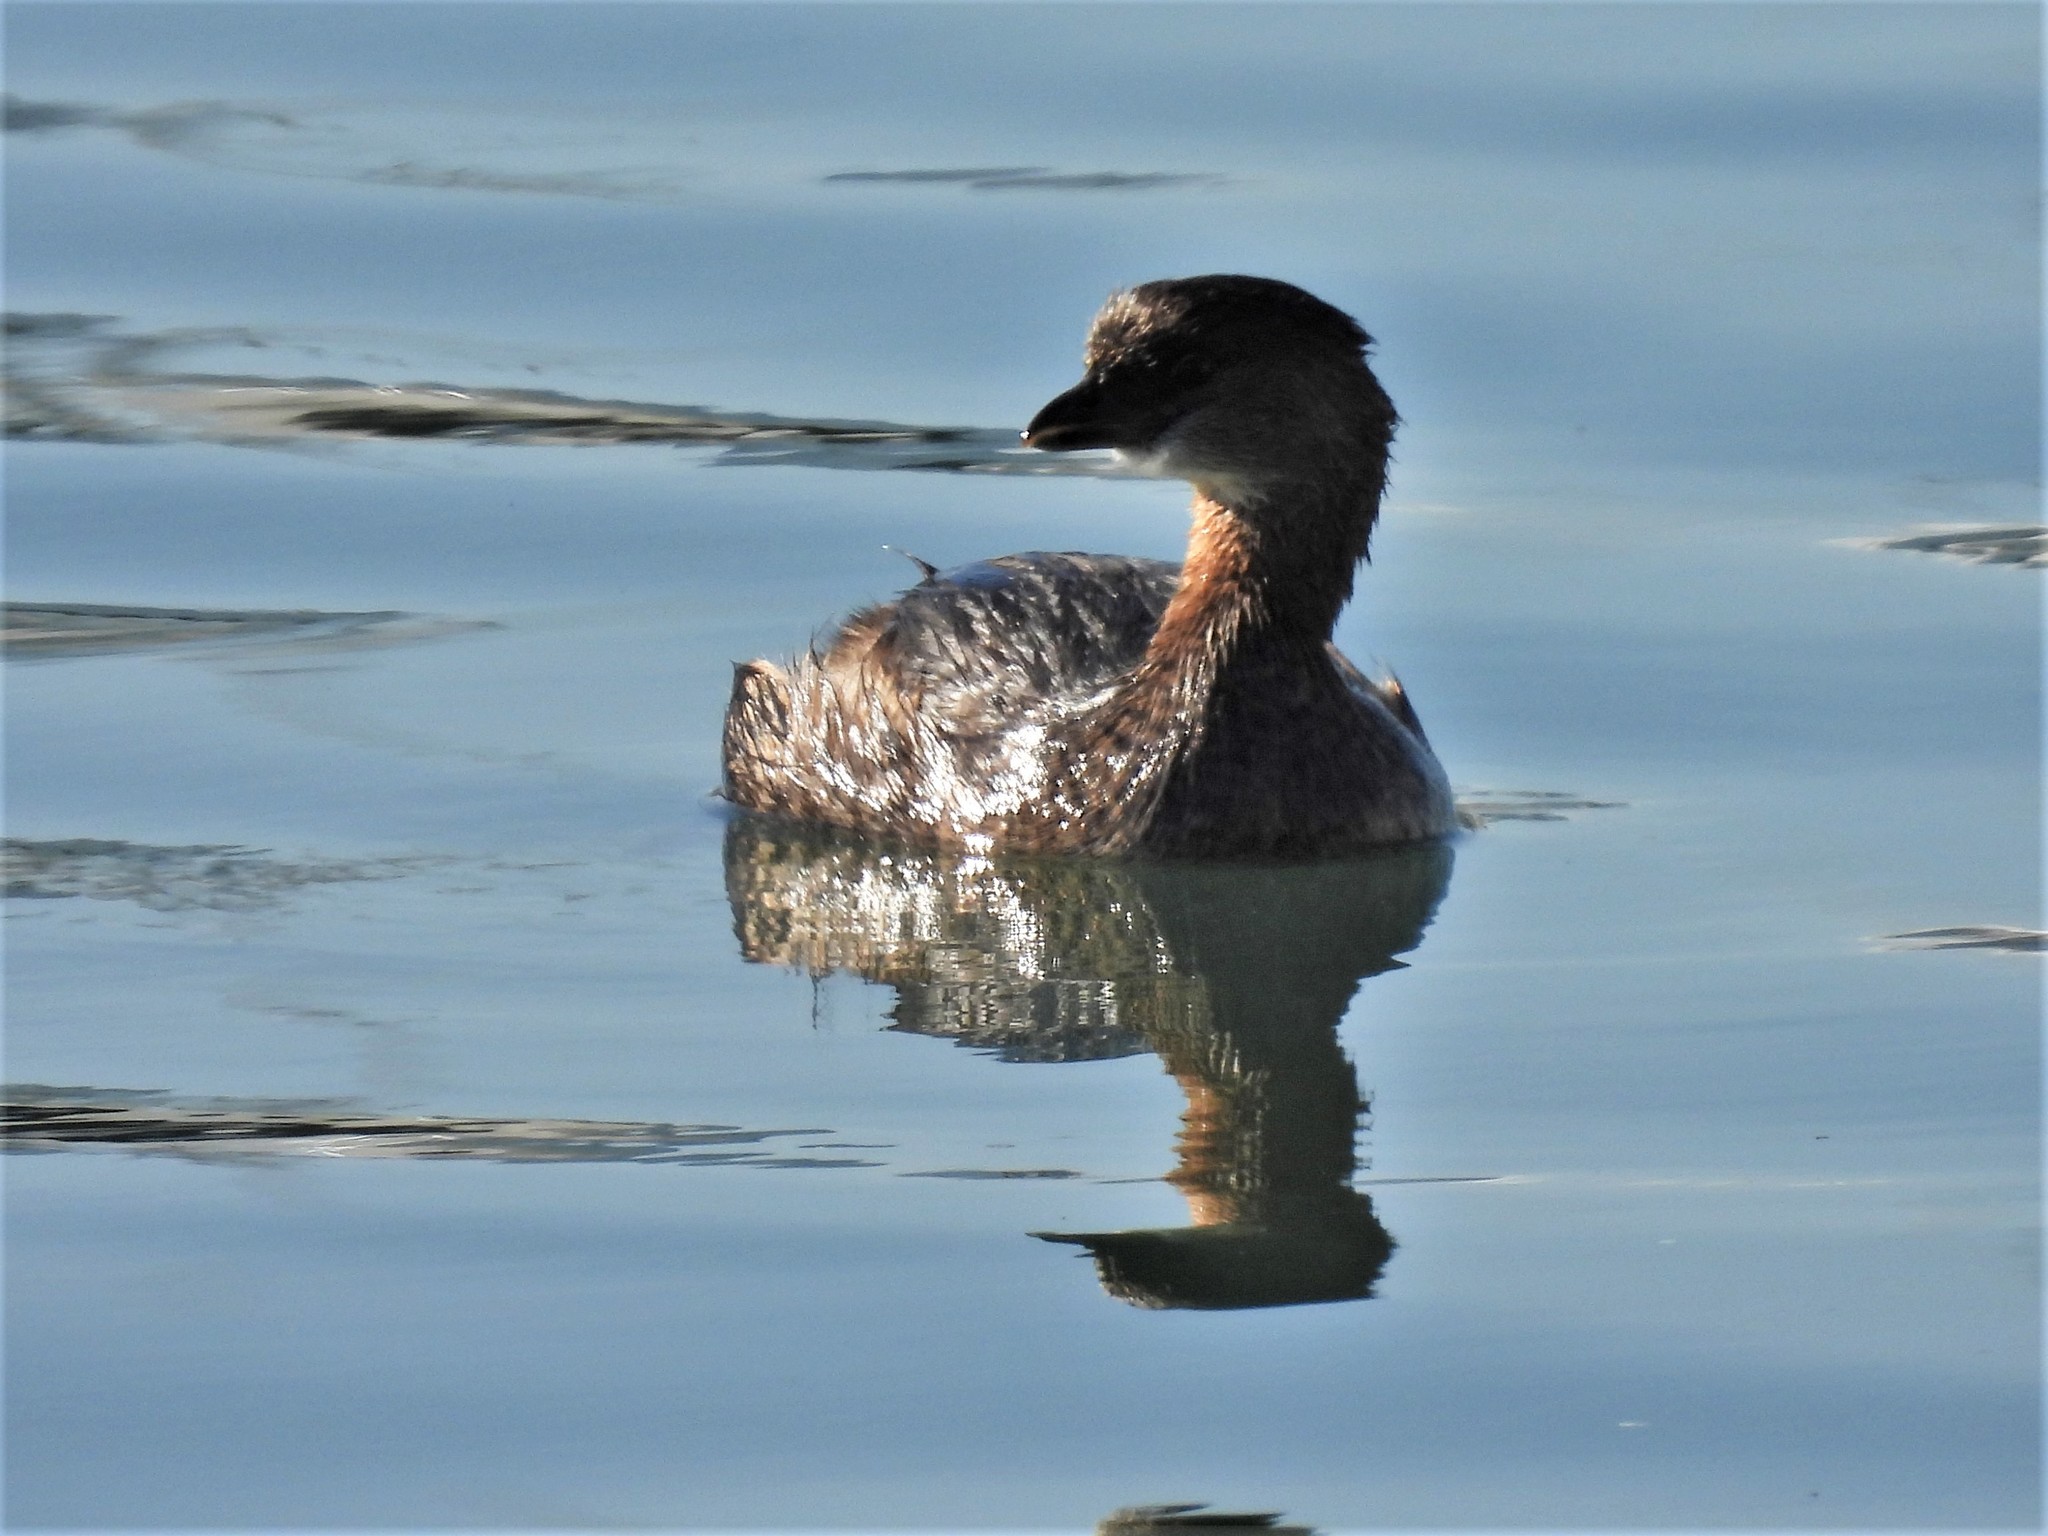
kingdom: Animalia
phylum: Chordata
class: Aves
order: Podicipediformes
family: Podicipedidae
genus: Podilymbus
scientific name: Podilymbus podiceps
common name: Pied-billed grebe
